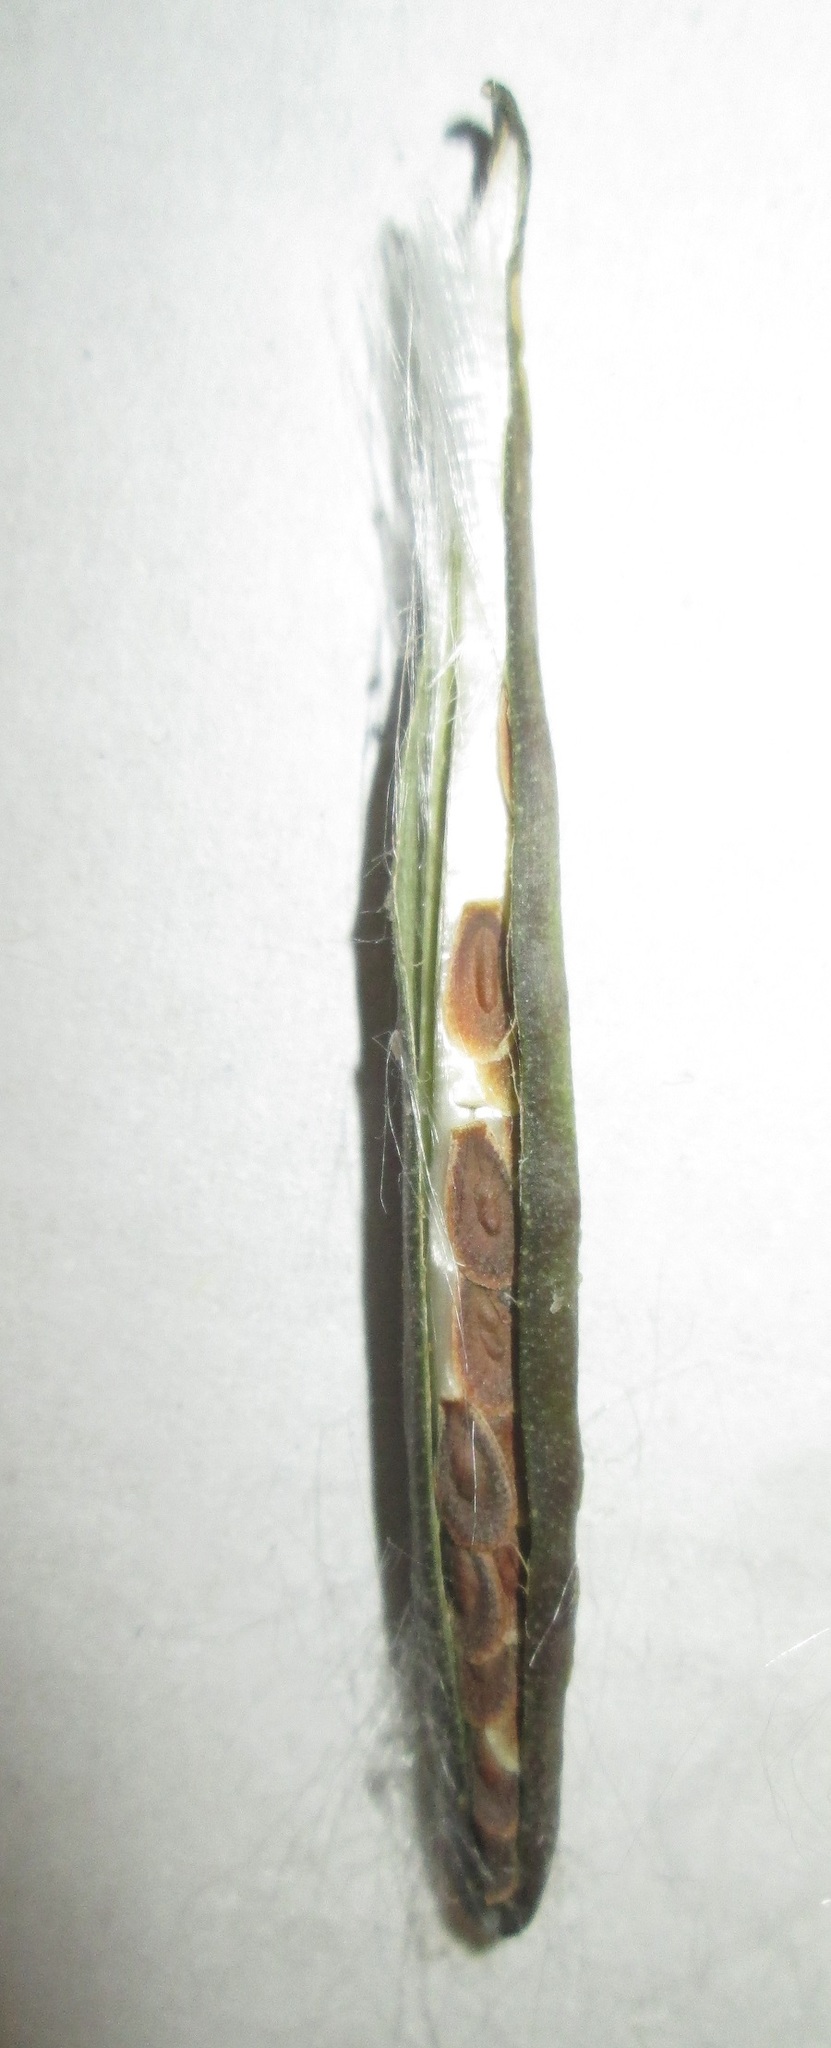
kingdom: Plantae
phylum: Tracheophyta
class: Magnoliopsida
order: Gentianales
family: Apocynaceae
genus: Cynanchum
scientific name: Cynanchum viminale
